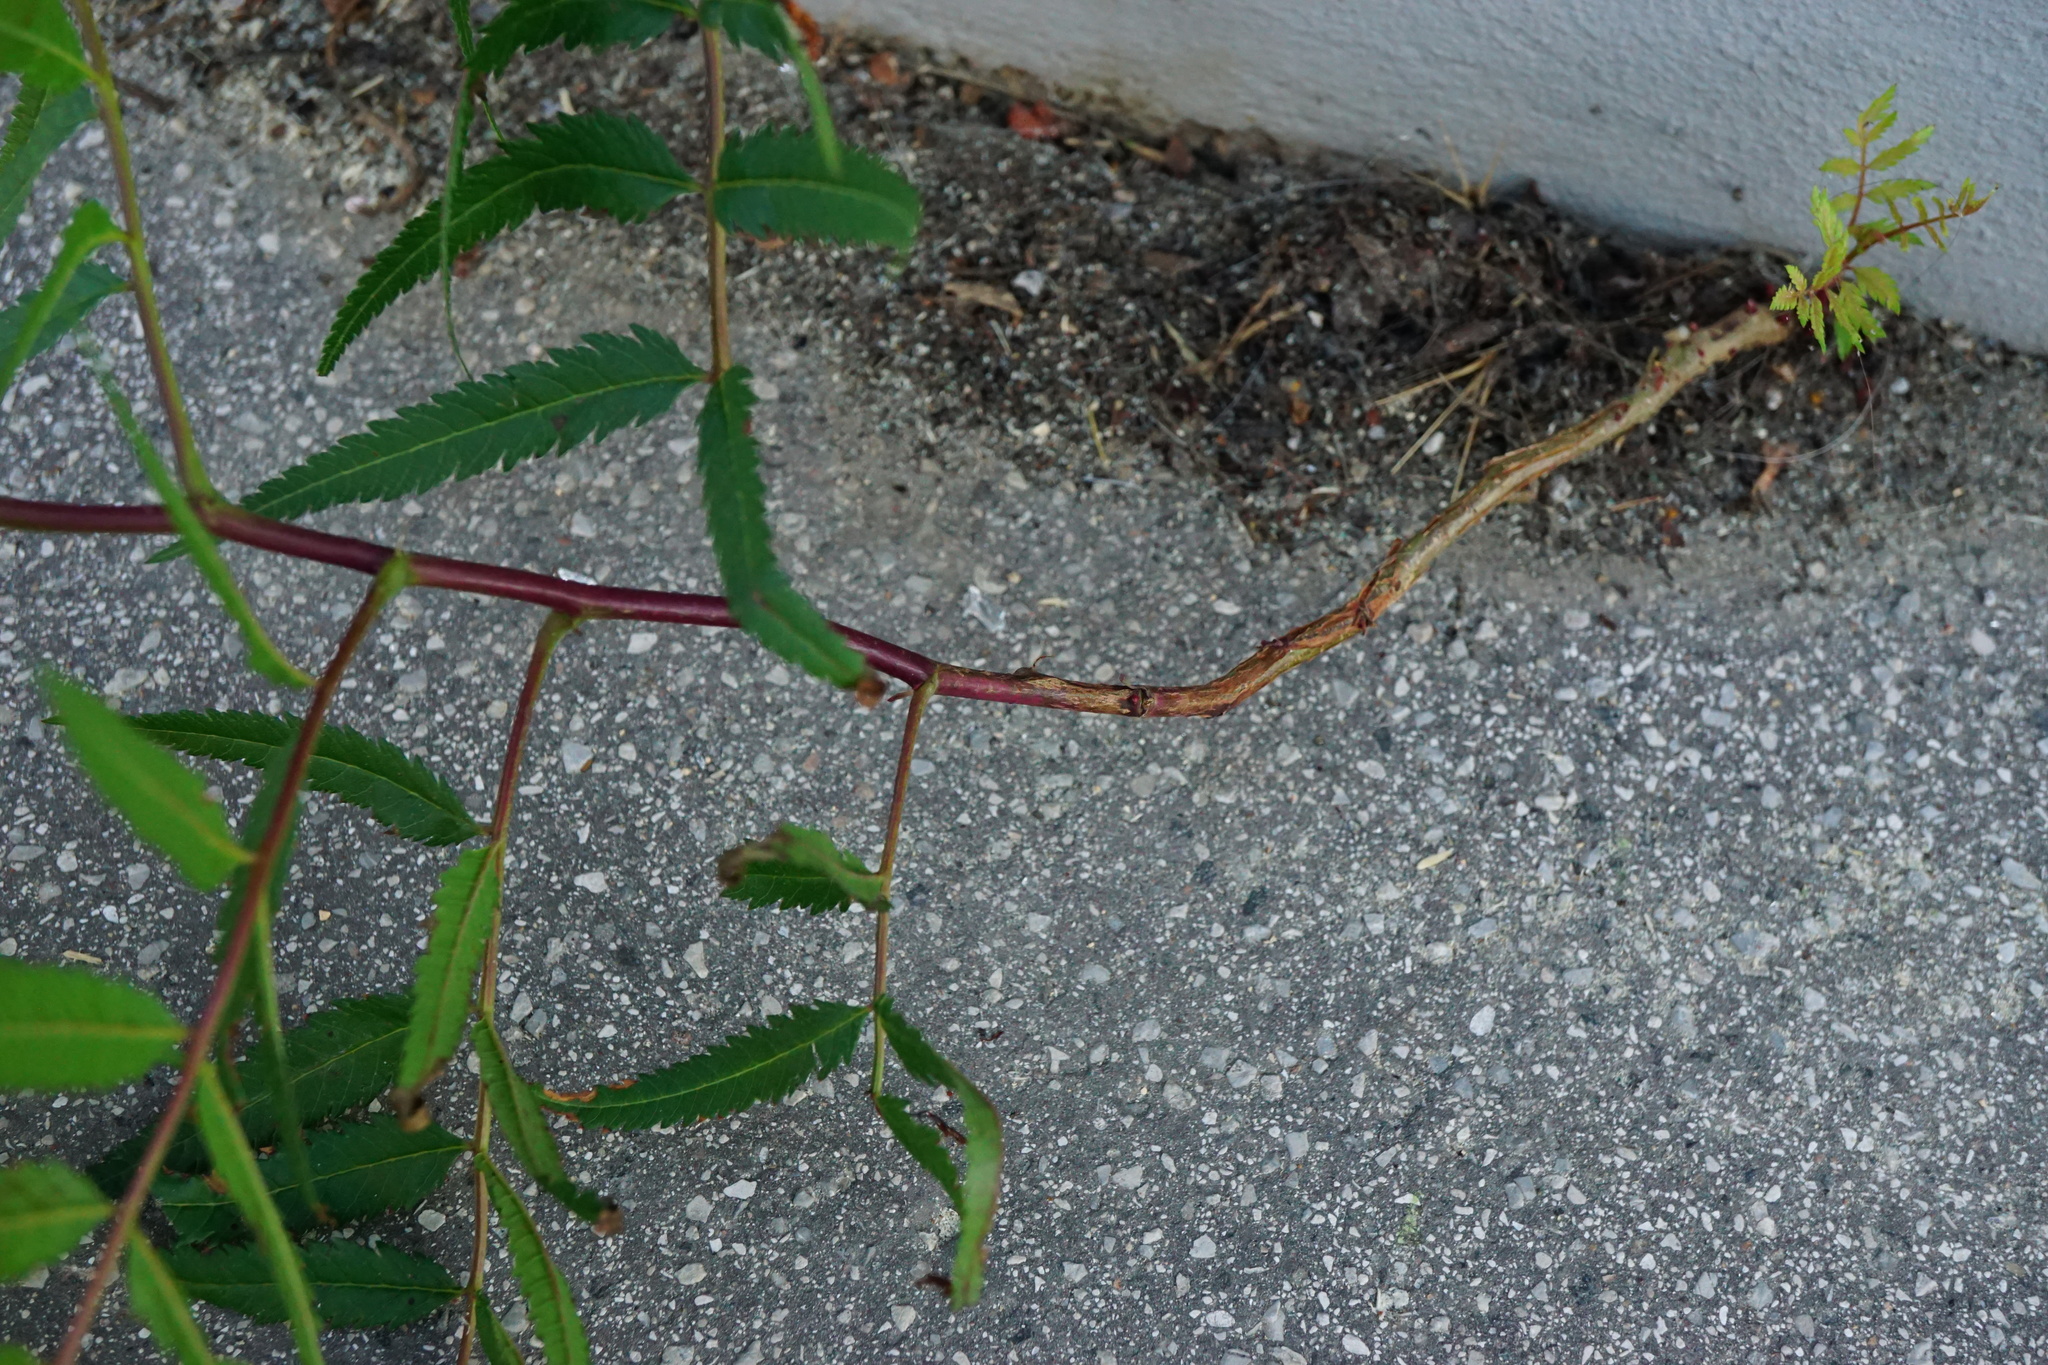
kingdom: Plantae
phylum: Tracheophyta
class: Magnoliopsida
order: Rosales
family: Rosaceae
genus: Sorbaria
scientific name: Sorbaria sorbifolia
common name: False spiraea
